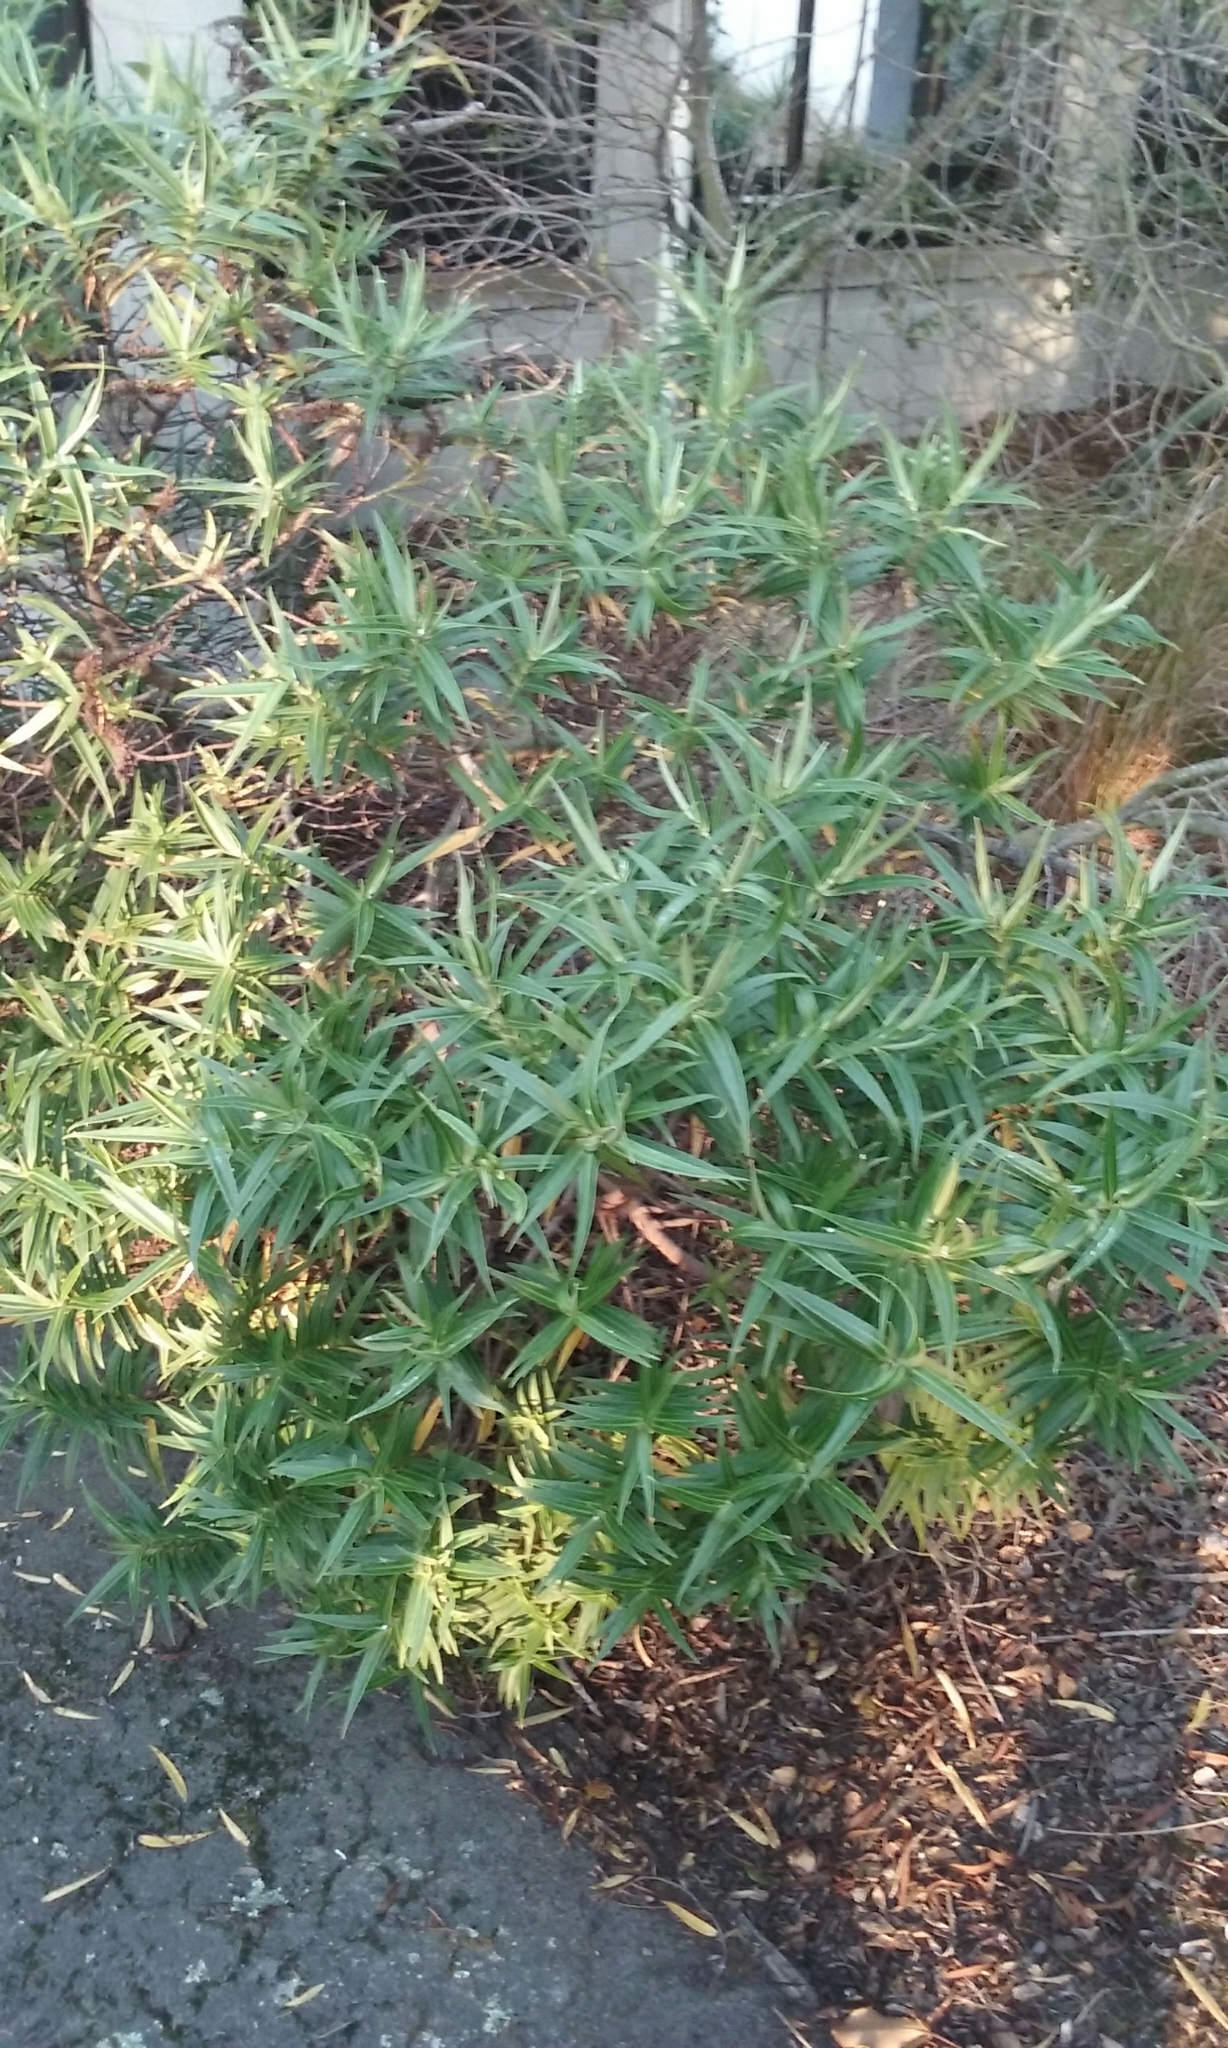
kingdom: Plantae
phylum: Tracheophyta
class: Magnoliopsida
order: Lamiales
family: Plantaginaceae
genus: Veronica
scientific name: Veronica salicifolia
